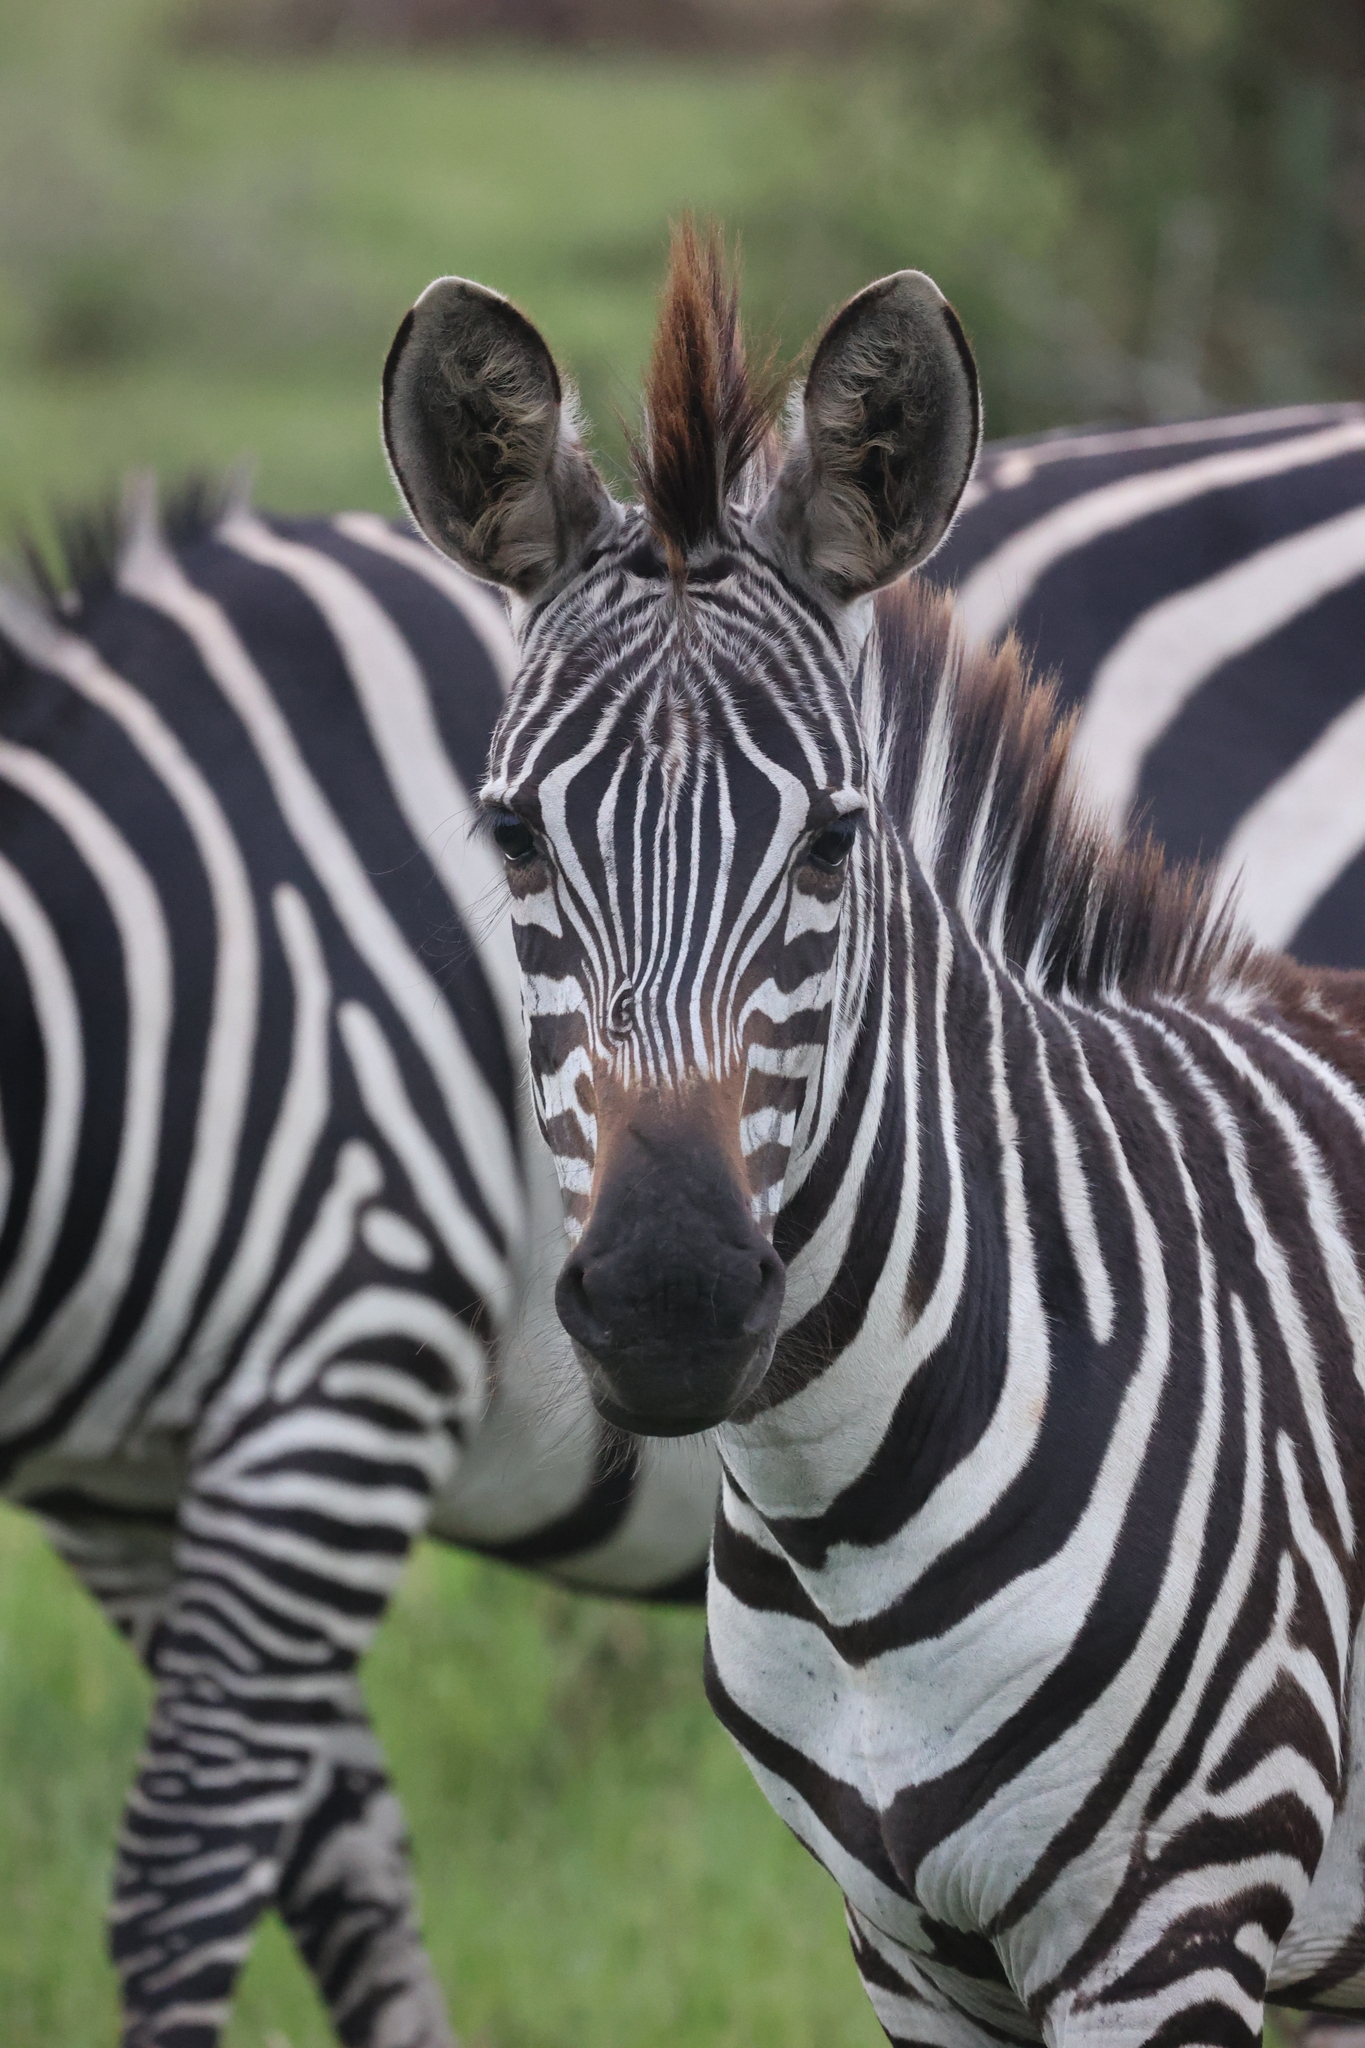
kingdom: Animalia
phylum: Chordata
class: Mammalia
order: Perissodactyla
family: Equidae
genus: Equus
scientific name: Equus quagga
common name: Plains zebra
